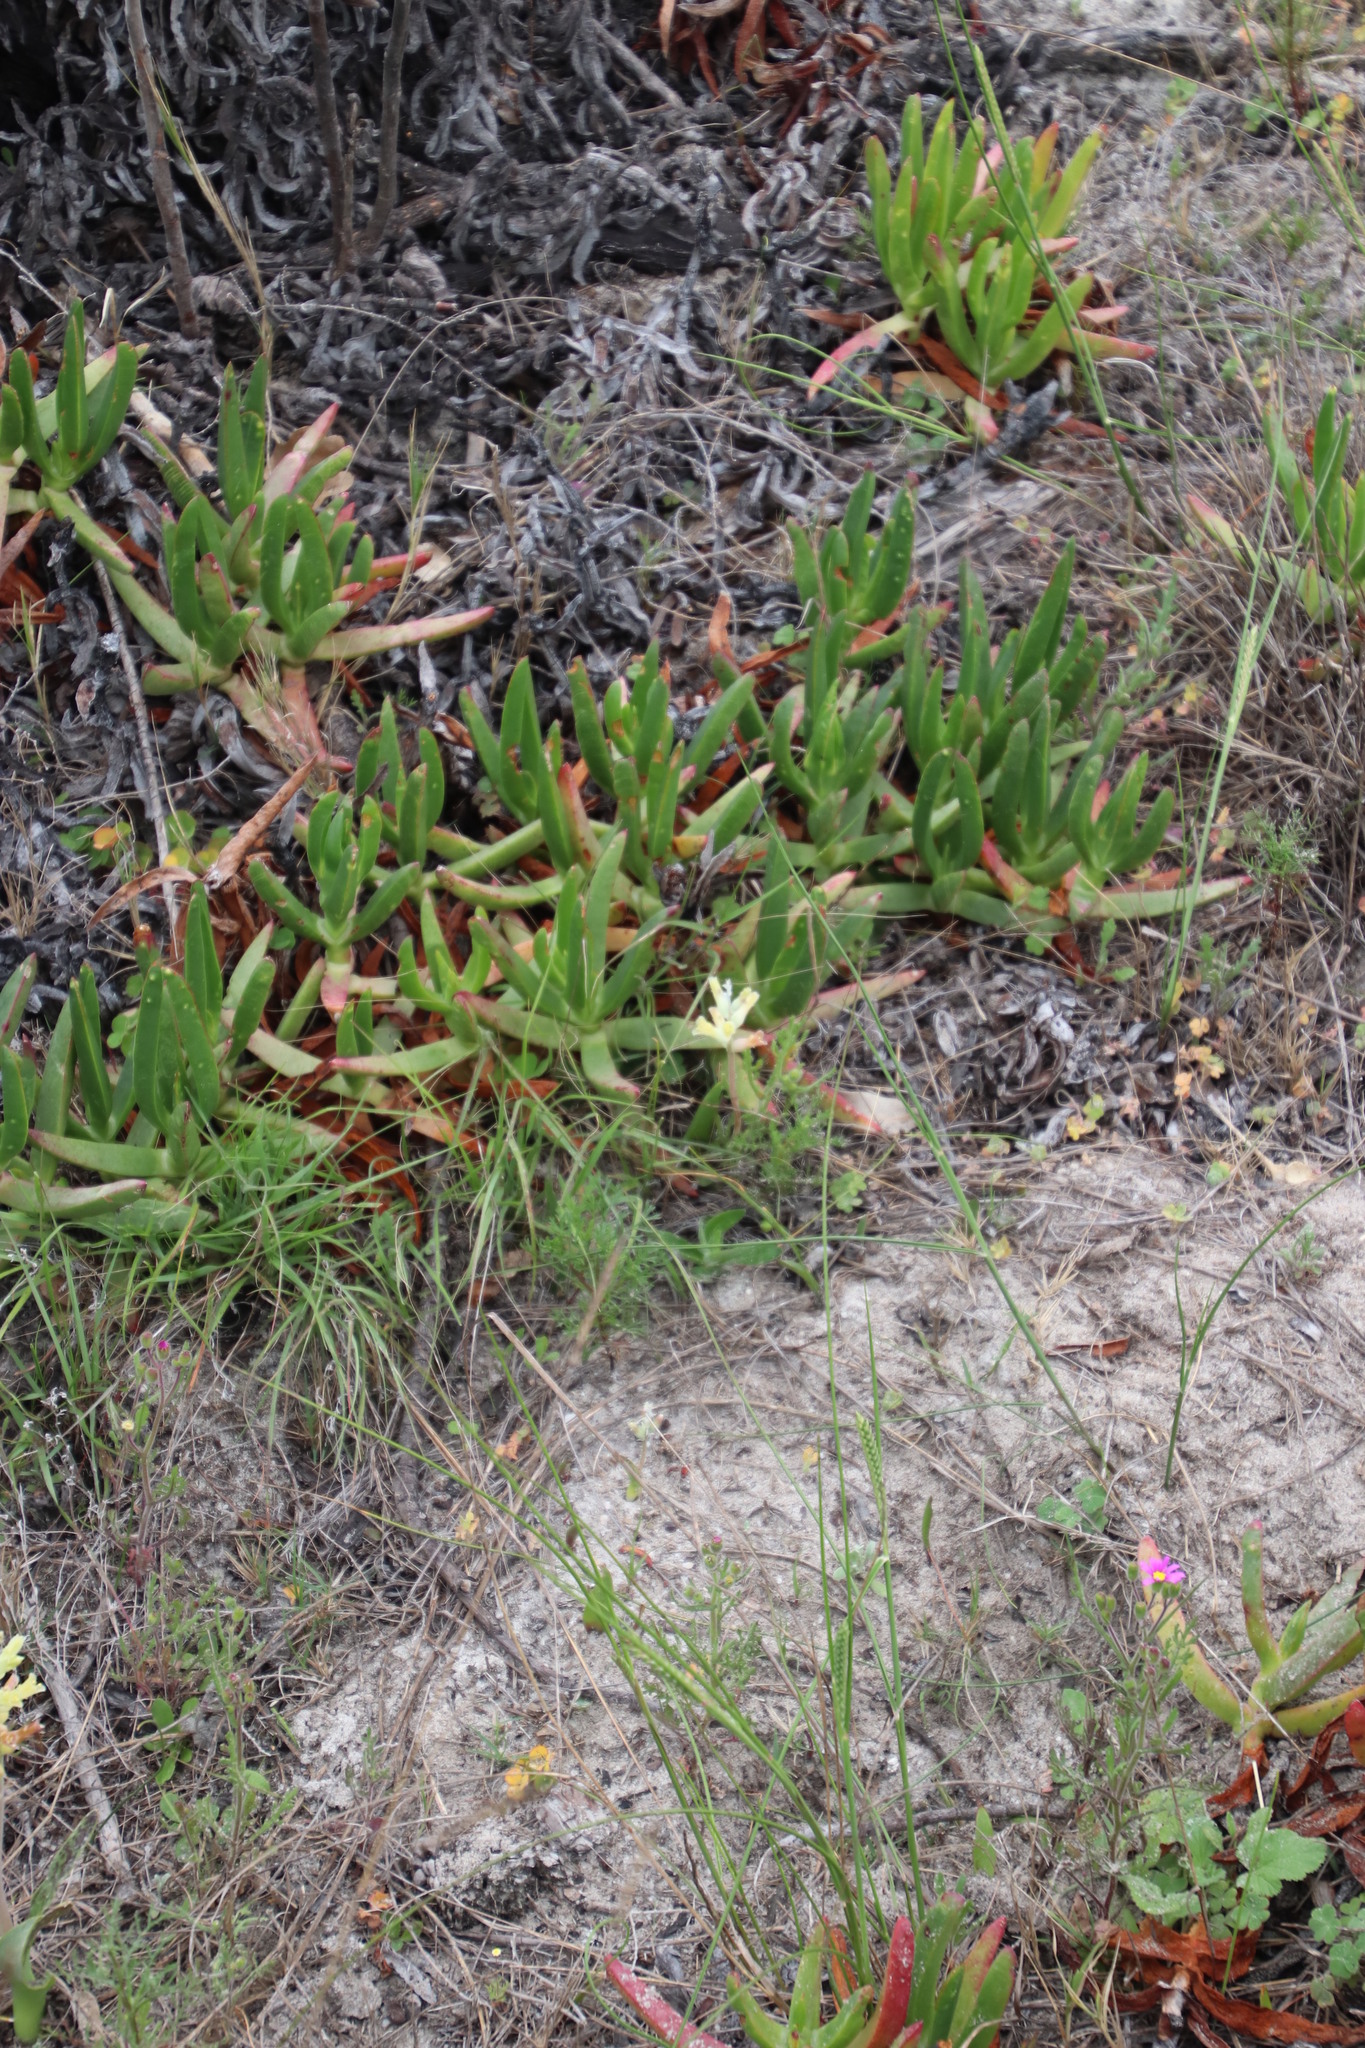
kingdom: Plantae
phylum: Tracheophyta
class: Liliopsida
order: Asparagales
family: Asparagaceae
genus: Lachenalia
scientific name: Lachenalia orchioides
